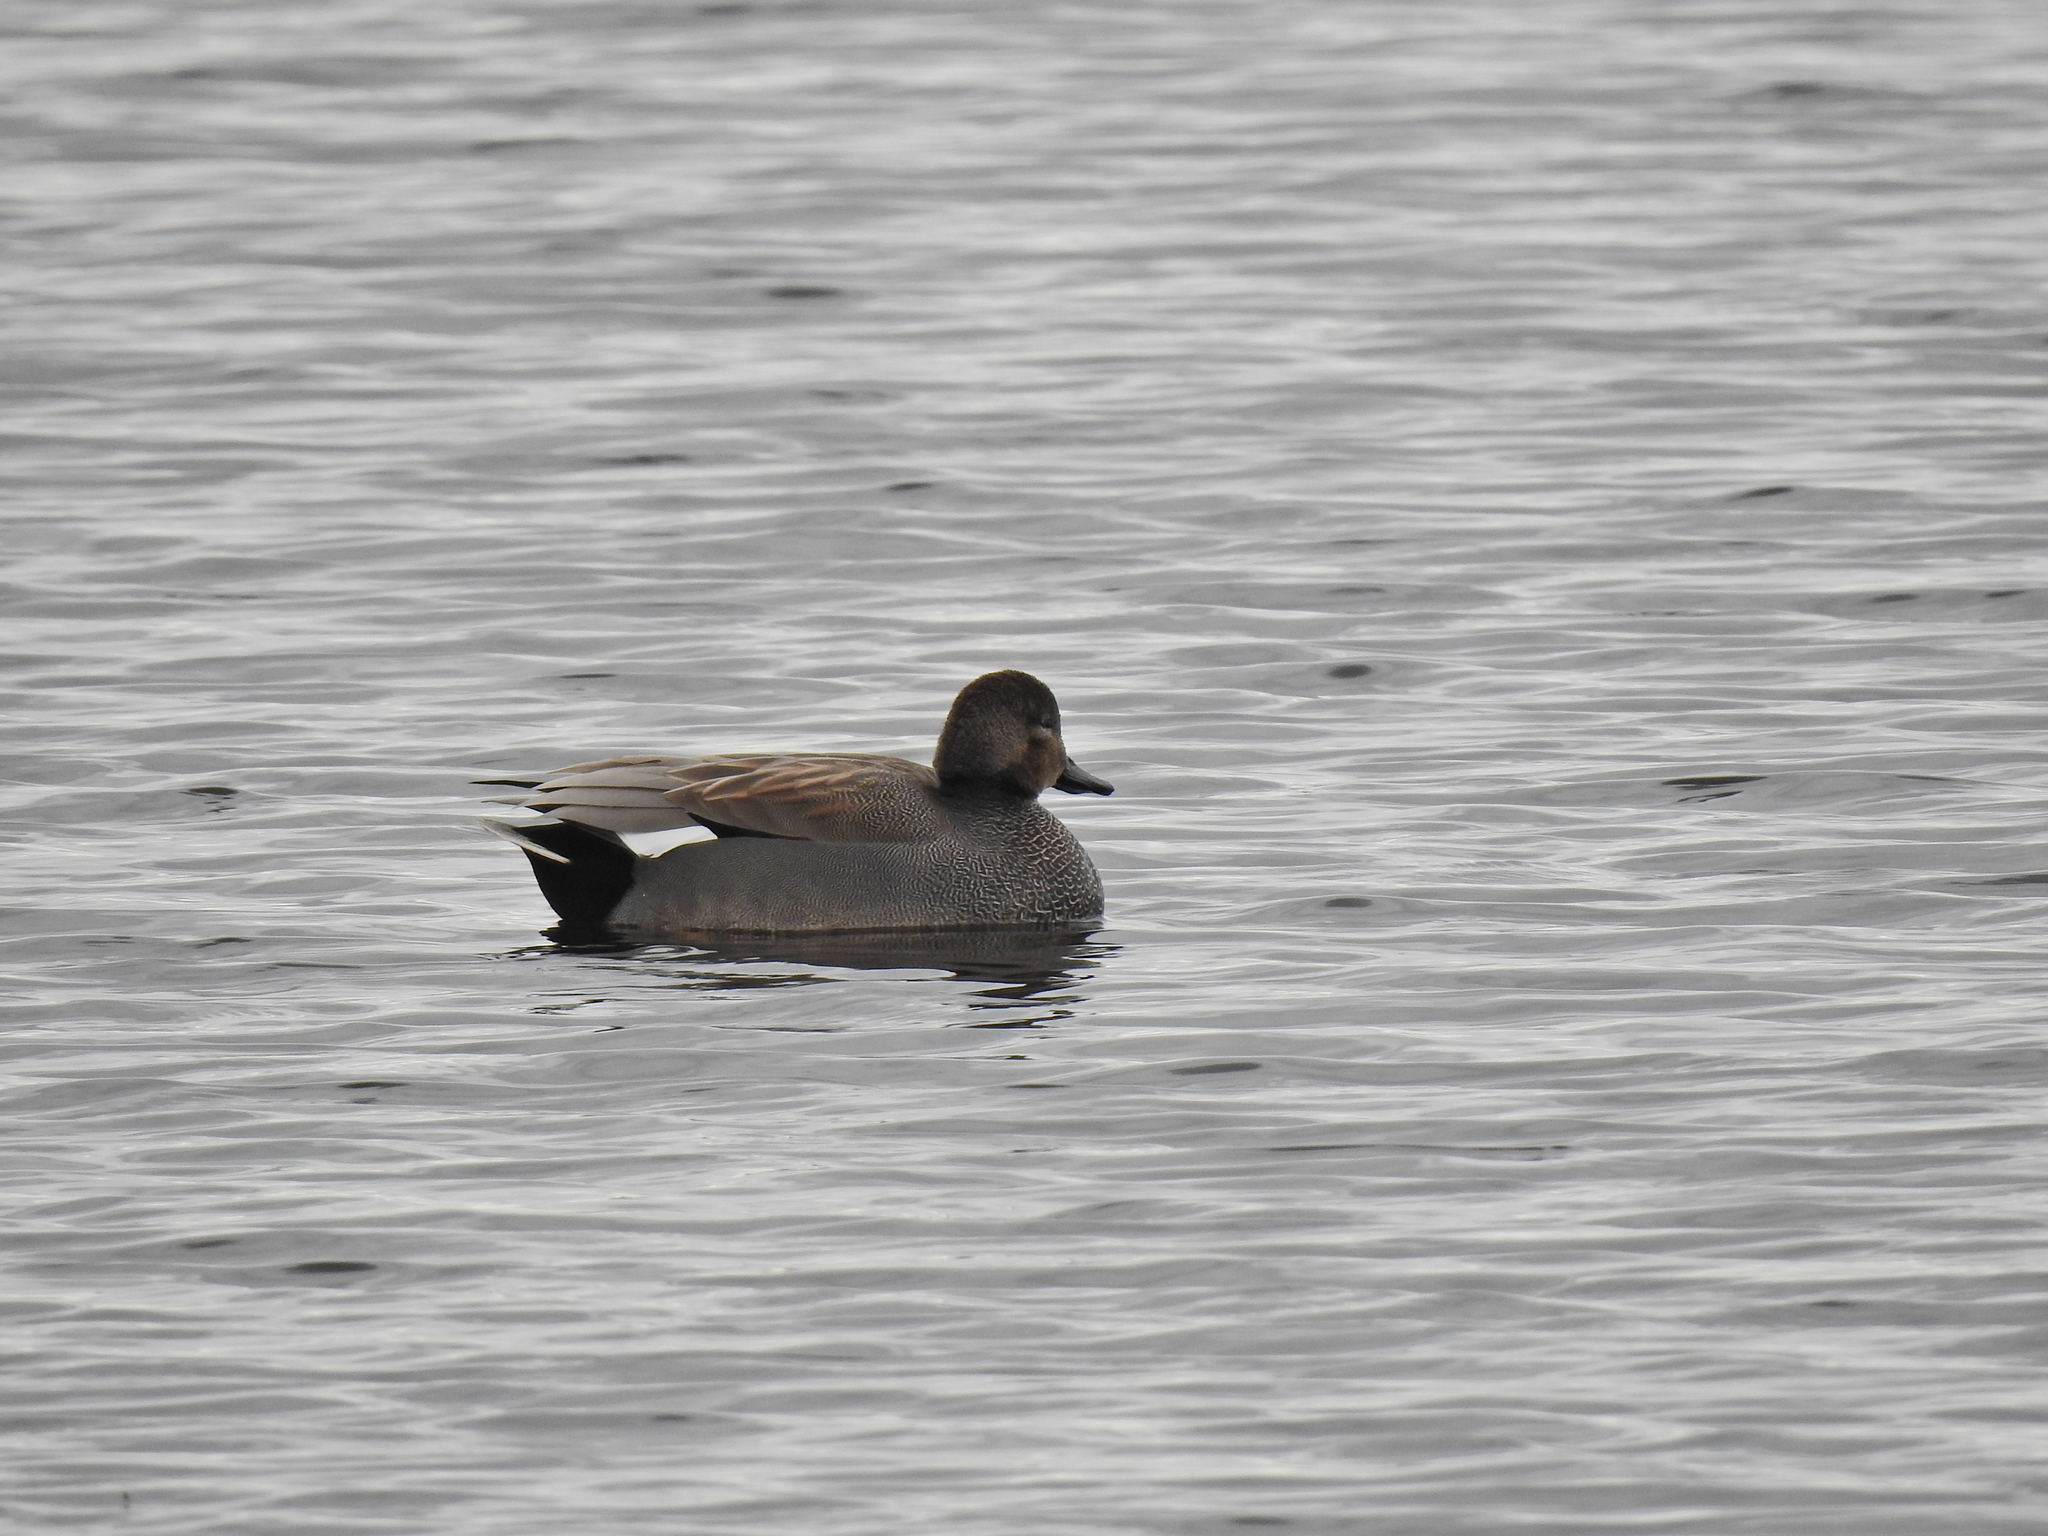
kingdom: Animalia
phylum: Chordata
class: Aves
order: Anseriformes
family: Anatidae
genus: Mareca
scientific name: Mareca strepera
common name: Gadwall
